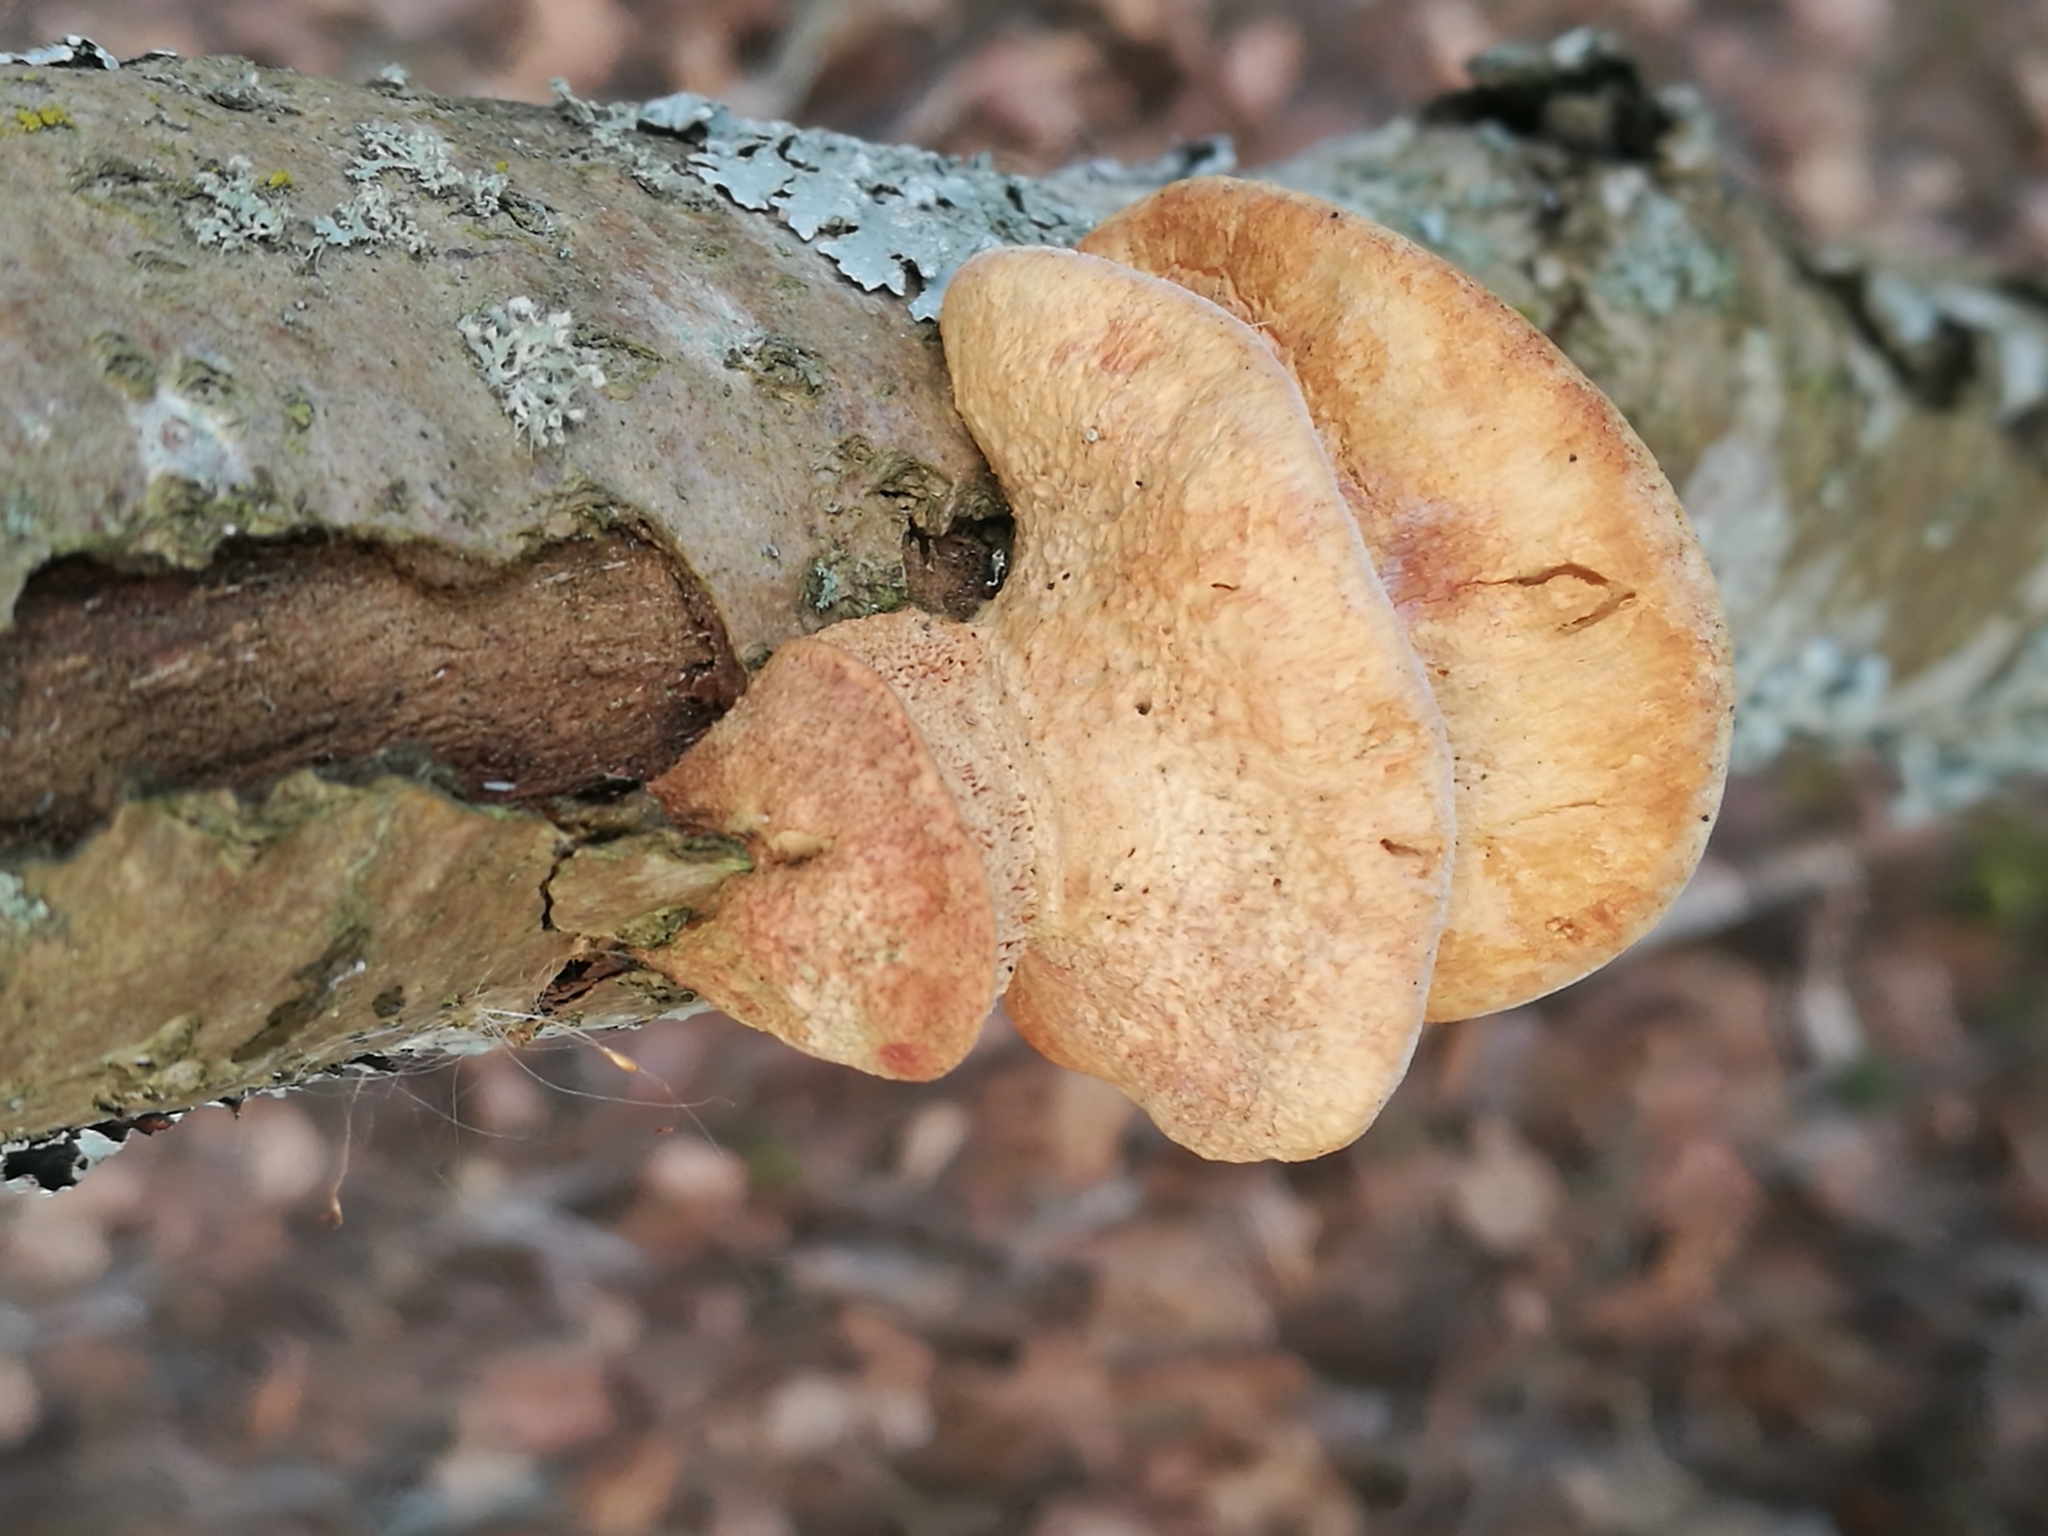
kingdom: Fungi
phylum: Basidiomycota
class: Agaricomycetes
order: Polyporales
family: Phanerochaetaceae
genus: Hapalopilus
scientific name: Hapalopilus rutilans
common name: Tender nesting polypore
